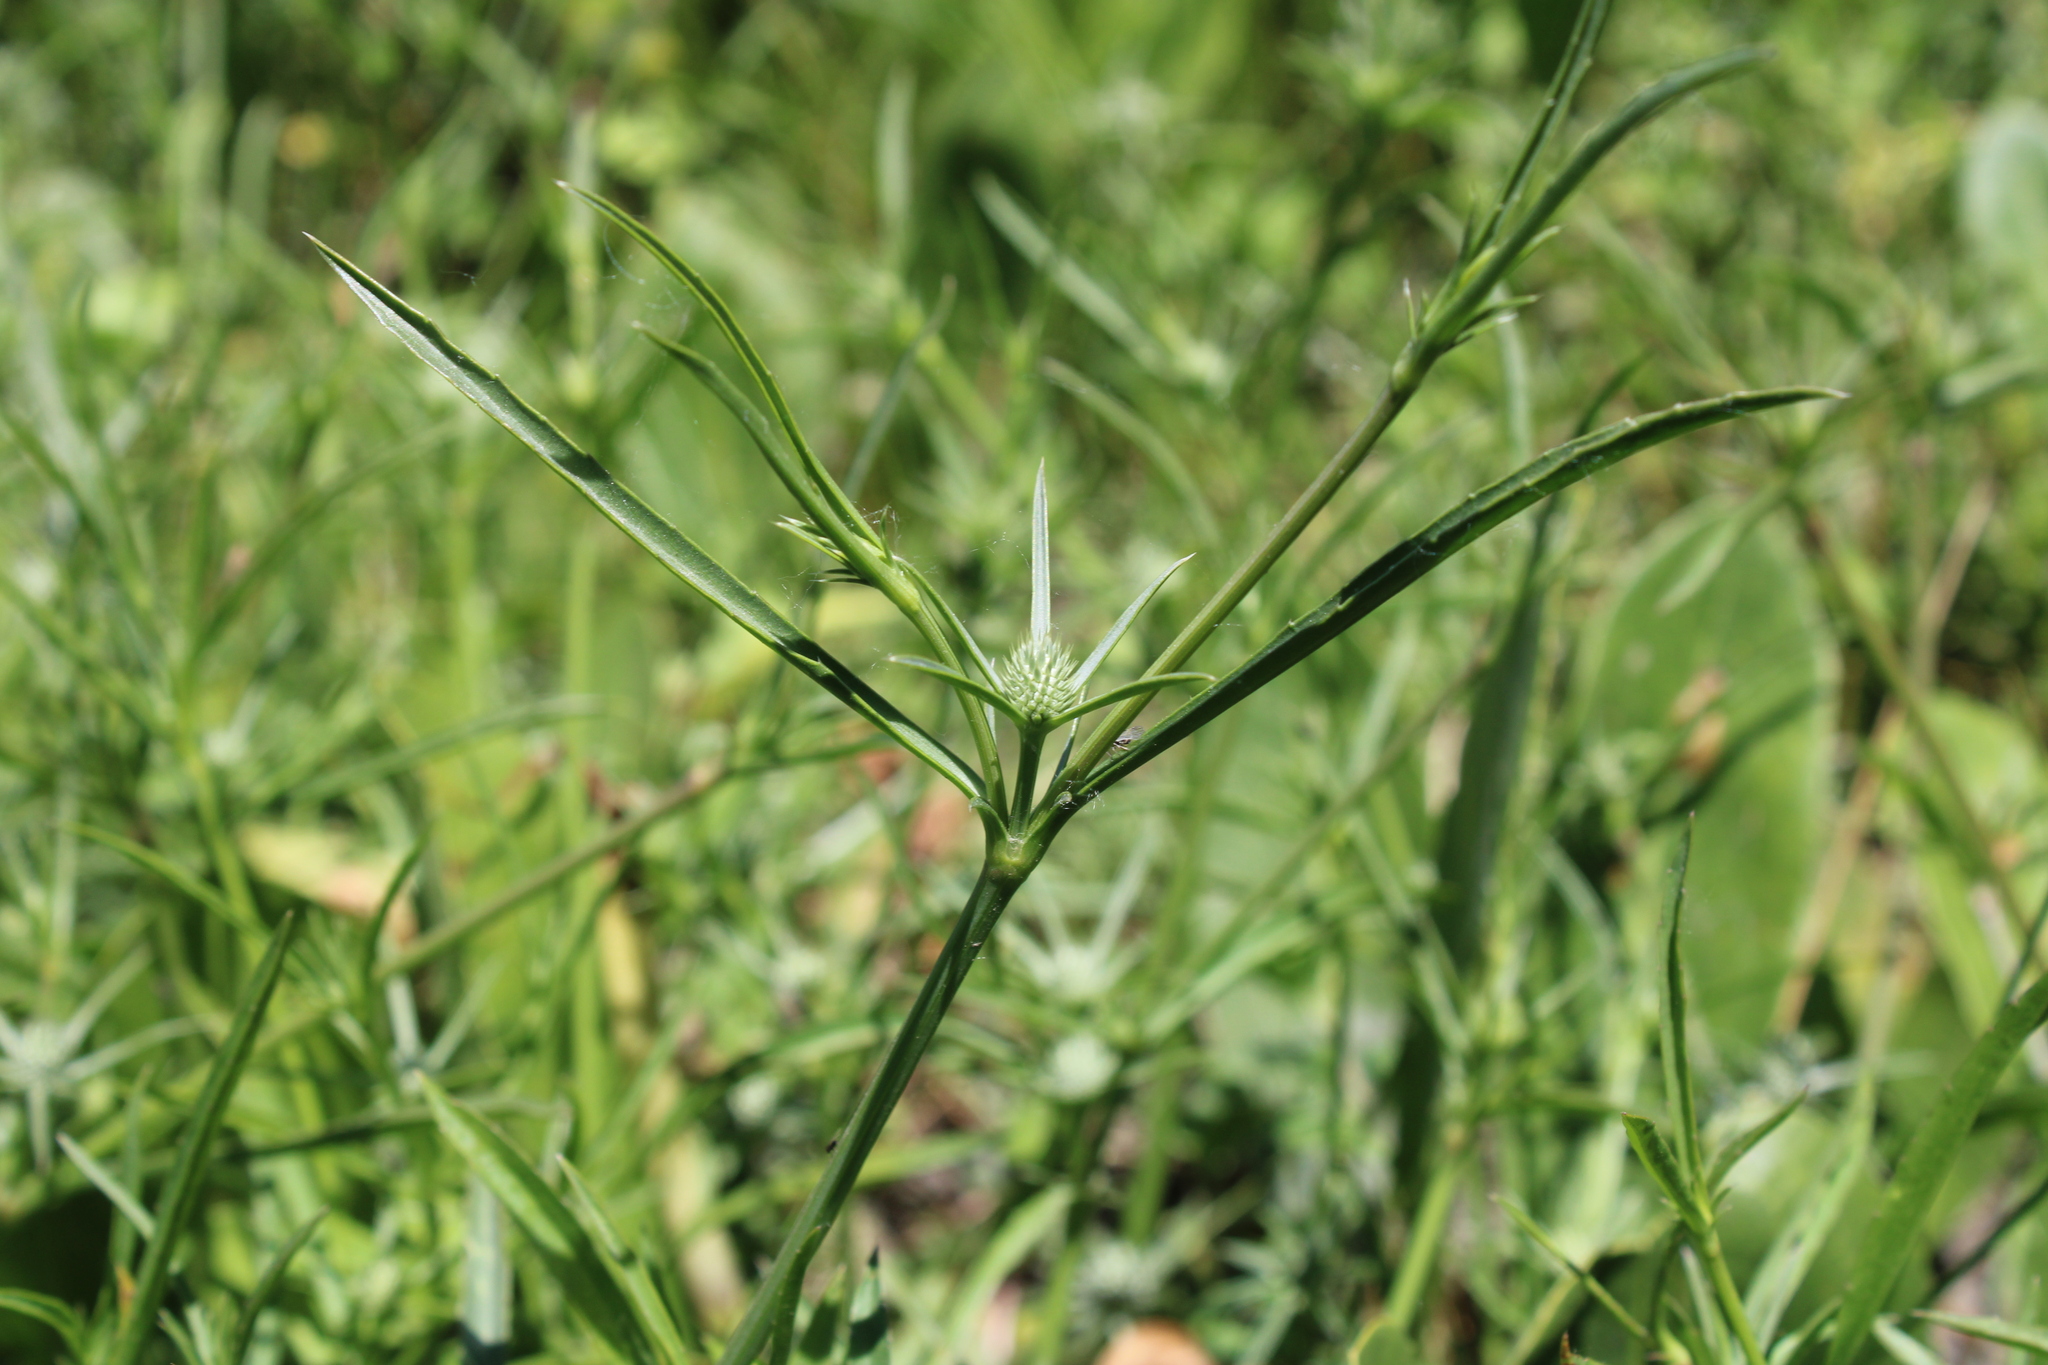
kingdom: Plantae
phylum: Tracheophyta
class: Magnoliopsida
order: Apiales
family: Apiaceae
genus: Eryngium
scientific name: Eryngium nudicaule
